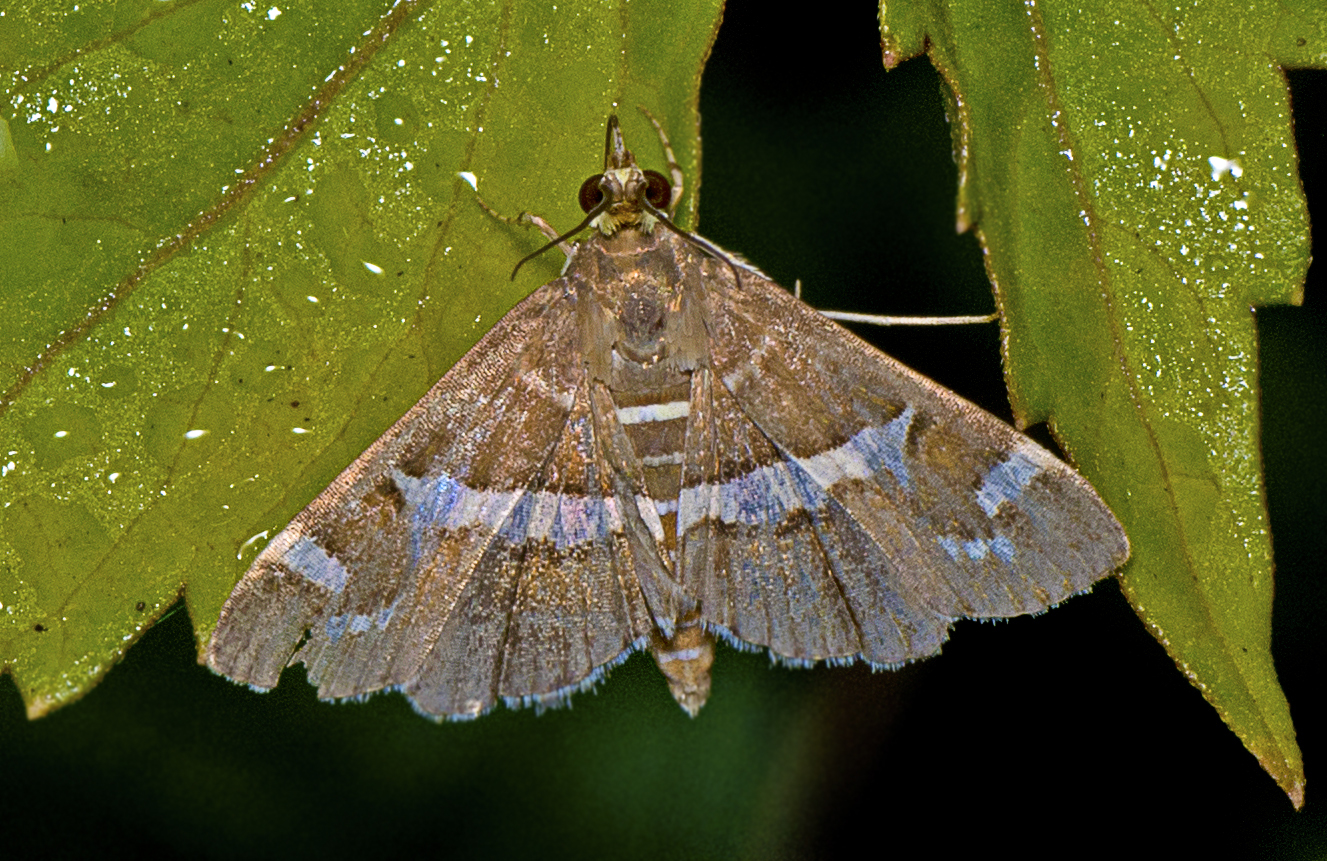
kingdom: Animalia
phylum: Arthropoda
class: Insecta
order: Lepidoptera
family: Crambidae
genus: Spoladea
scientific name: Spoladea recurvalis
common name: Beet webworm moth
